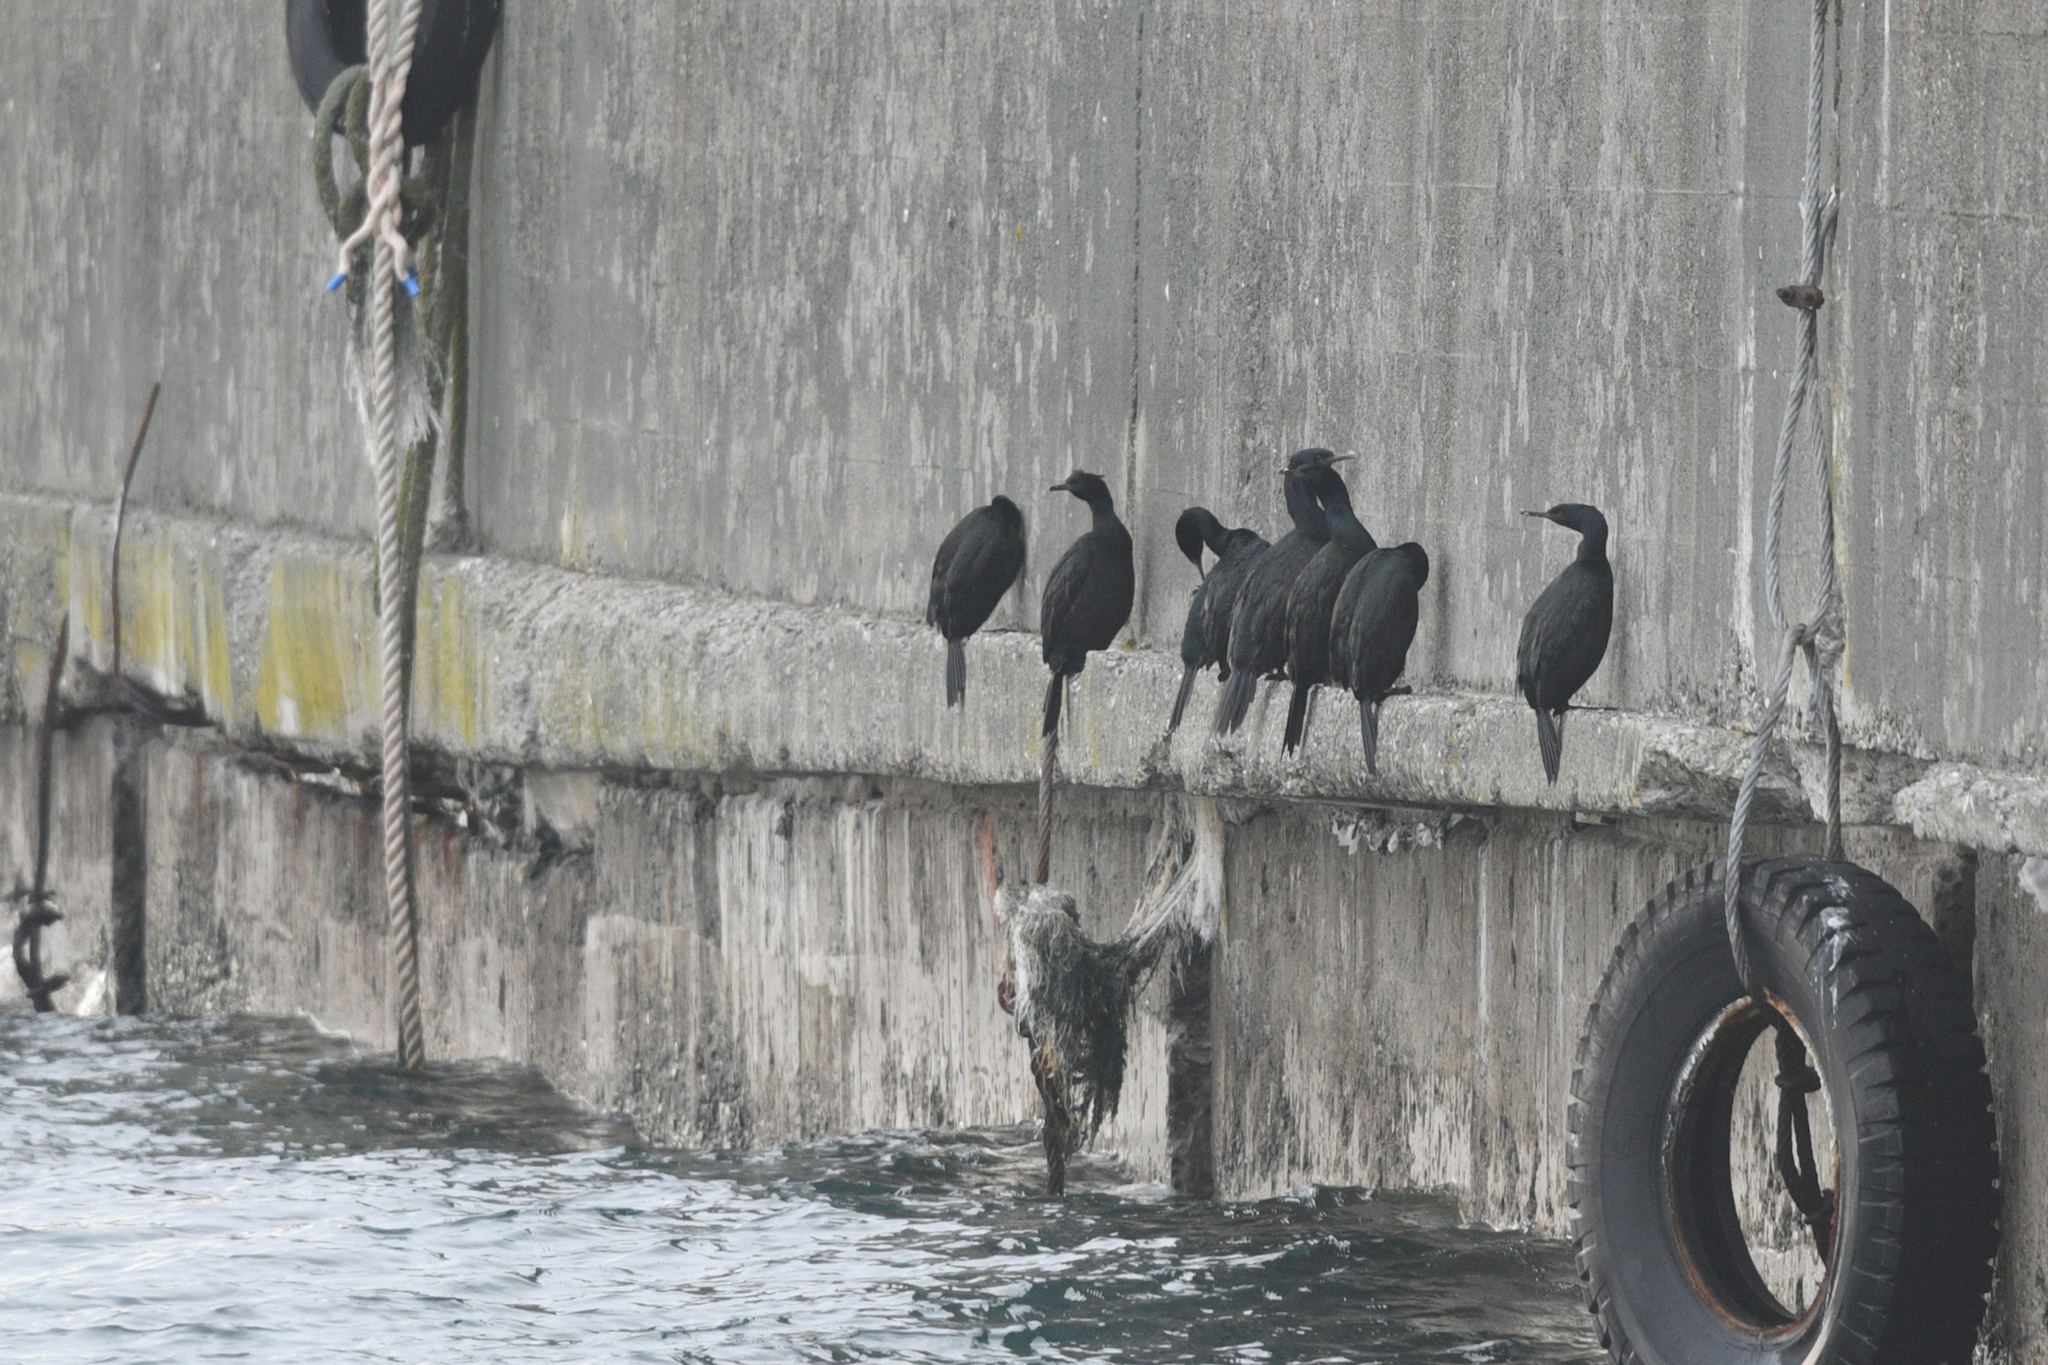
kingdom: Animalia
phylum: Chordata
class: Aves
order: Suliformes
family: Phalacrocoracidae
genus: Phalacrocorax
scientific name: Phalacrocorax pelagicus
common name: Pelagic cormorant
